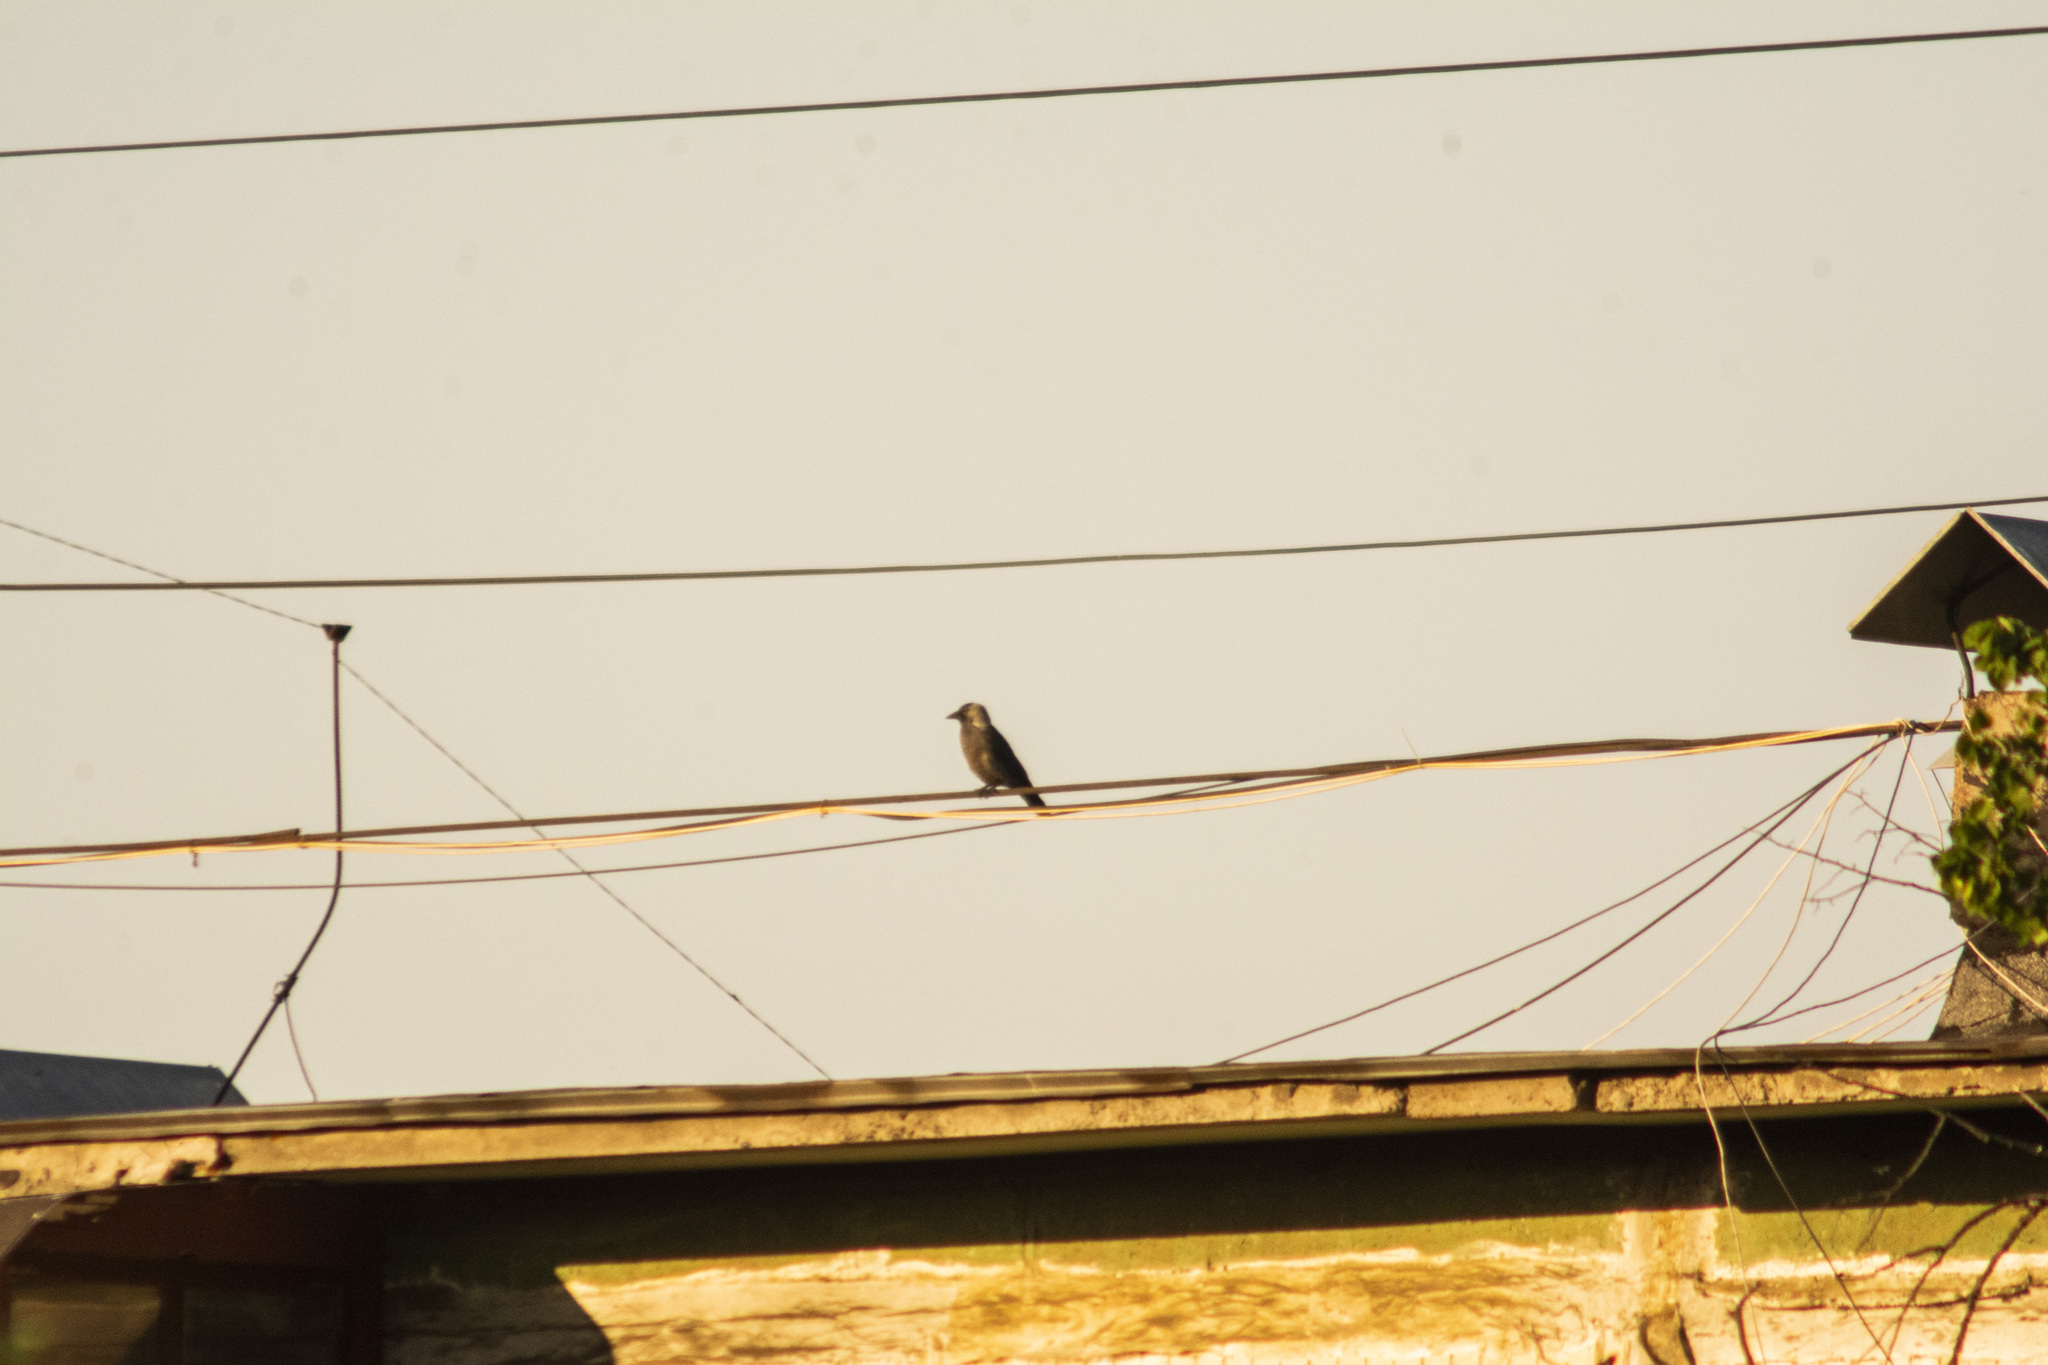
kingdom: Animalia
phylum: Chordata
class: Aves
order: Passeriformes
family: Corvidae
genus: Coloeus
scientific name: Coloeus monedula
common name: Western jackdaw
